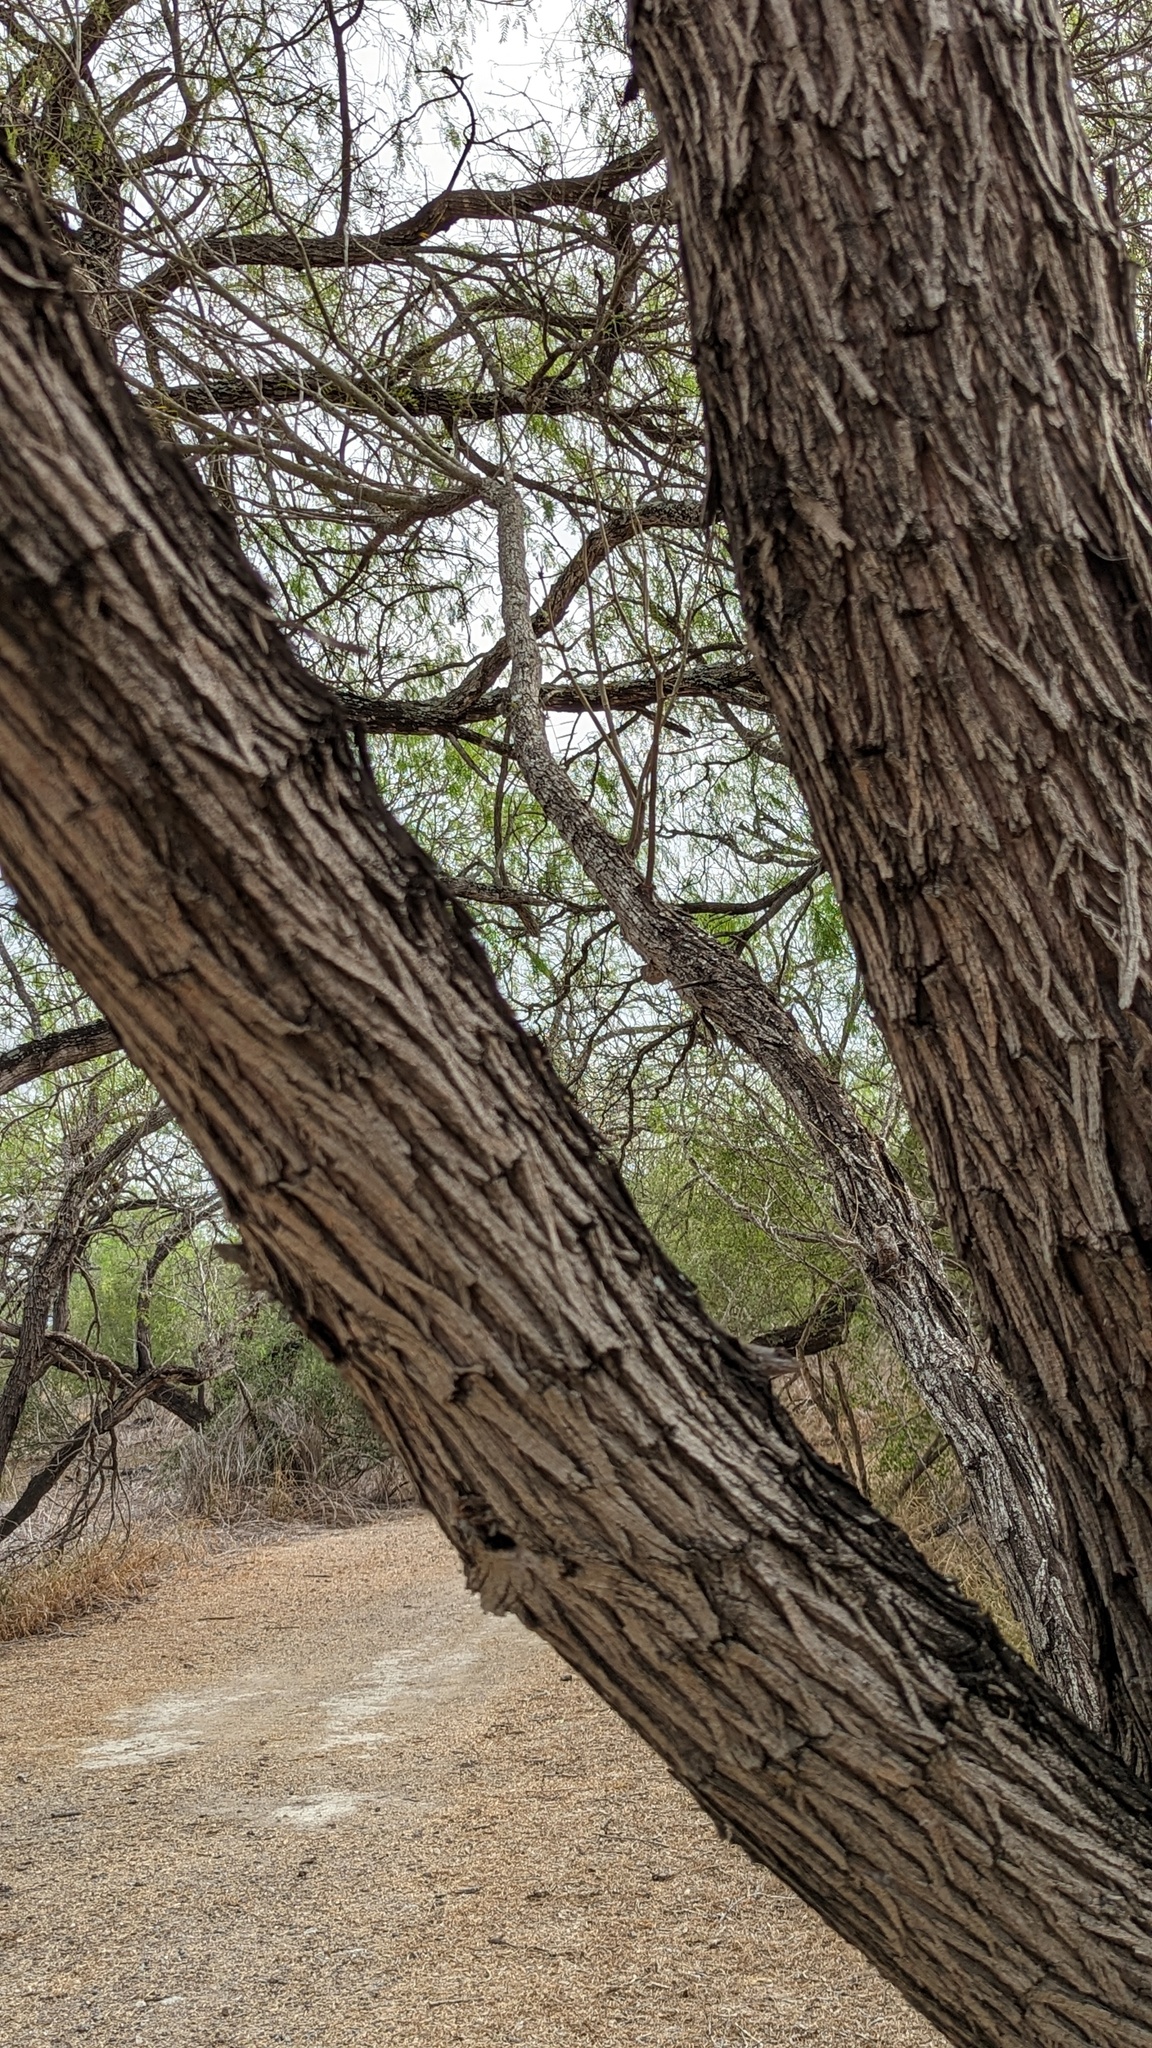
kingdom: Plantae
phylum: Tracheophyta
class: Magnoliopsida
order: Fabales
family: Fabaceae
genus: Prosopis
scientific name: Prosopis glandulosa
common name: Honey mesquite
